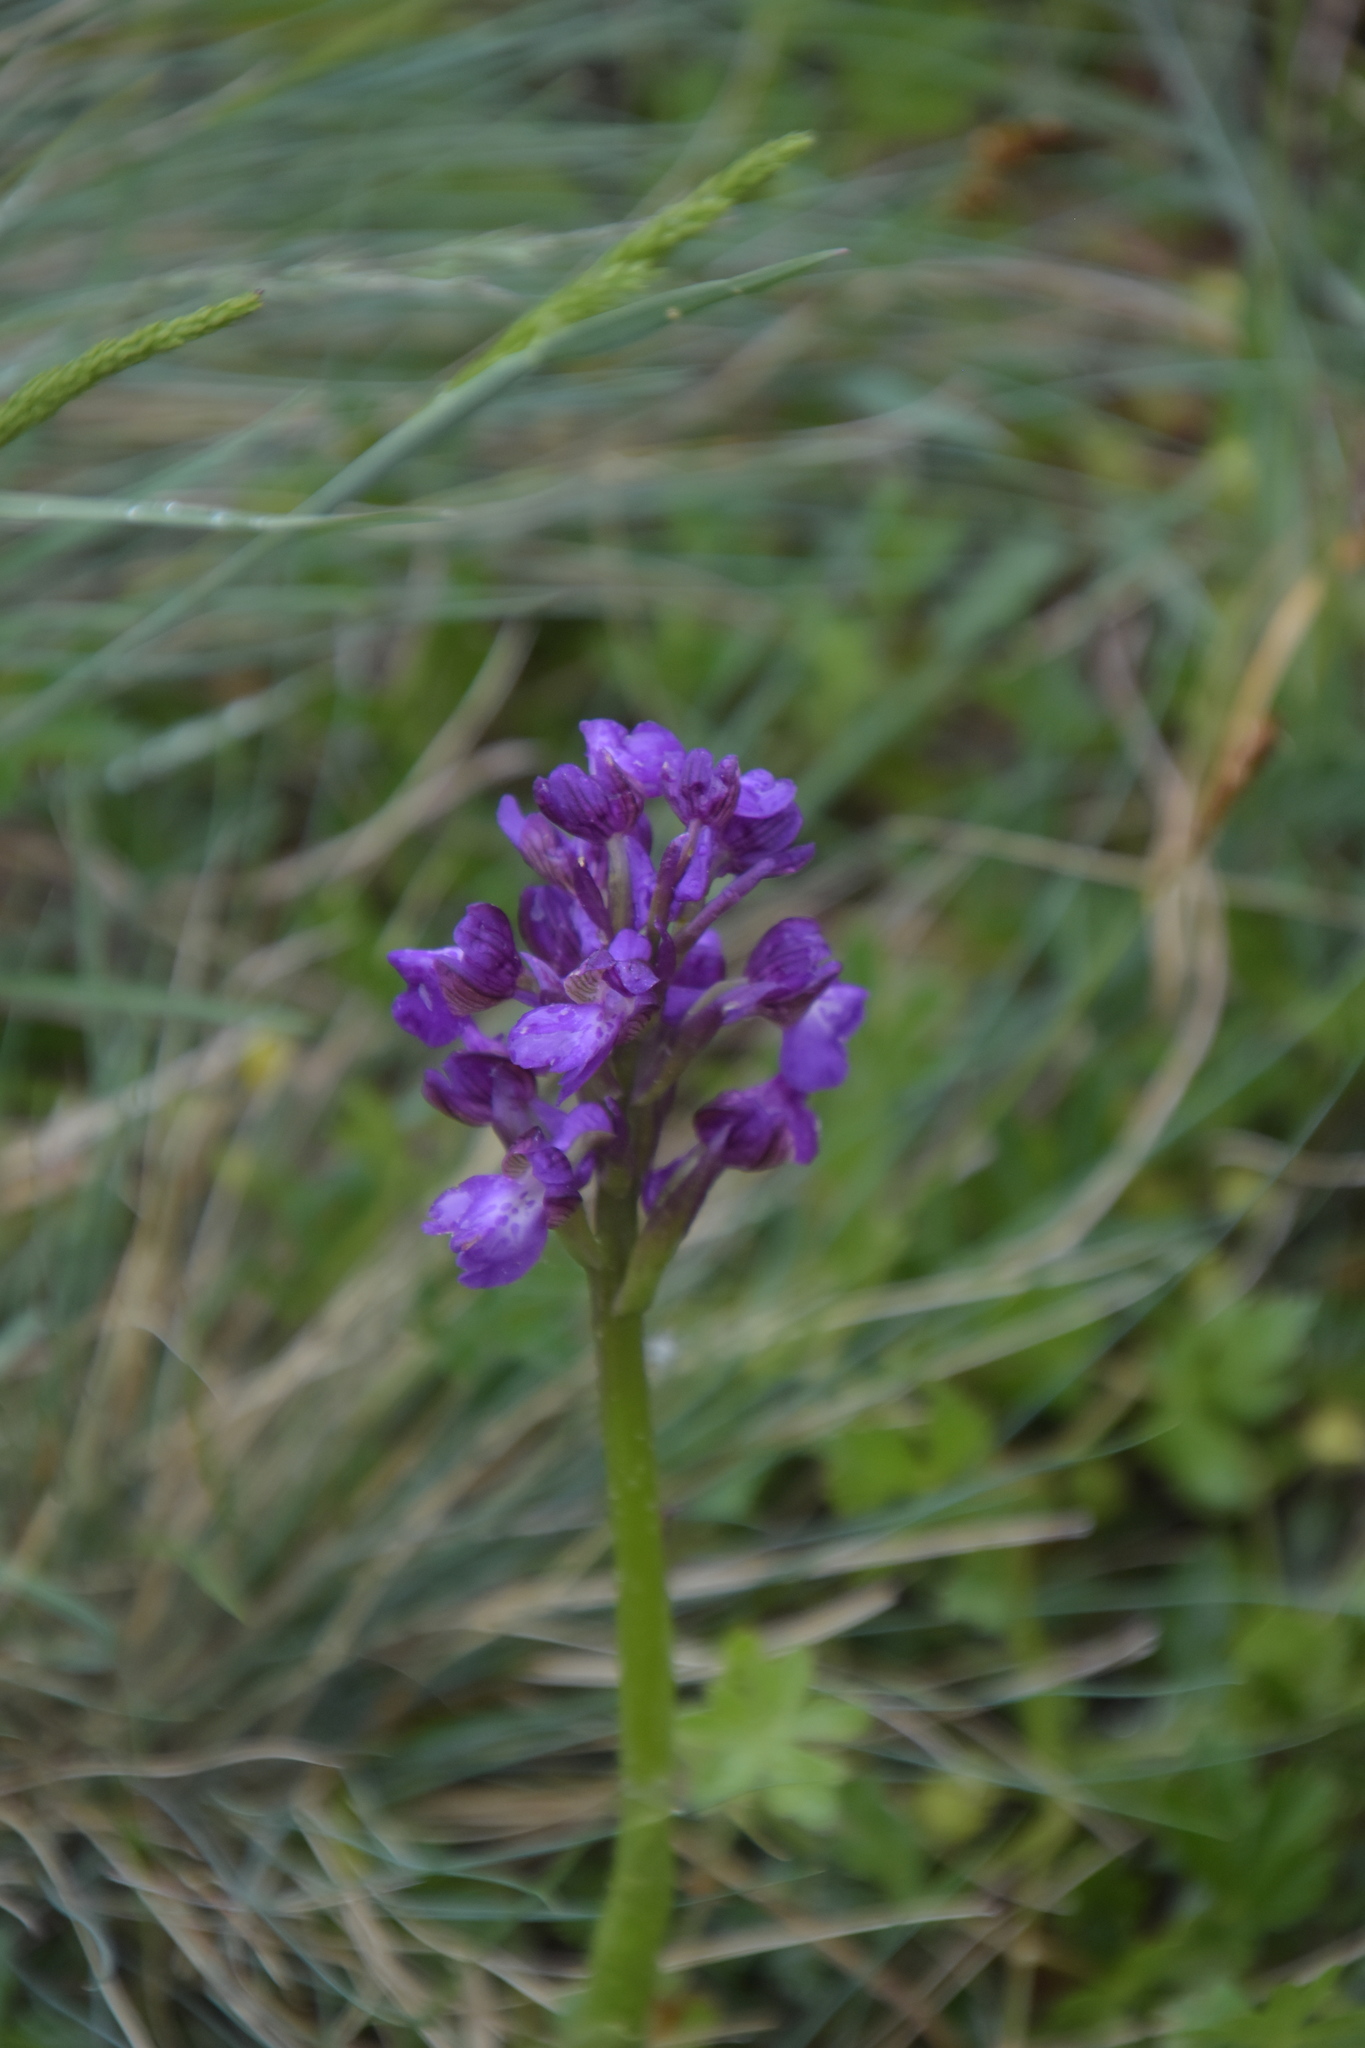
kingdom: Plantae
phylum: Tracheophyta
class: Liliopsida
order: Asparagales
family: Orchidaceae
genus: Anacamptis
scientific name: Anacamptis morio
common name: Green-winged orchid
